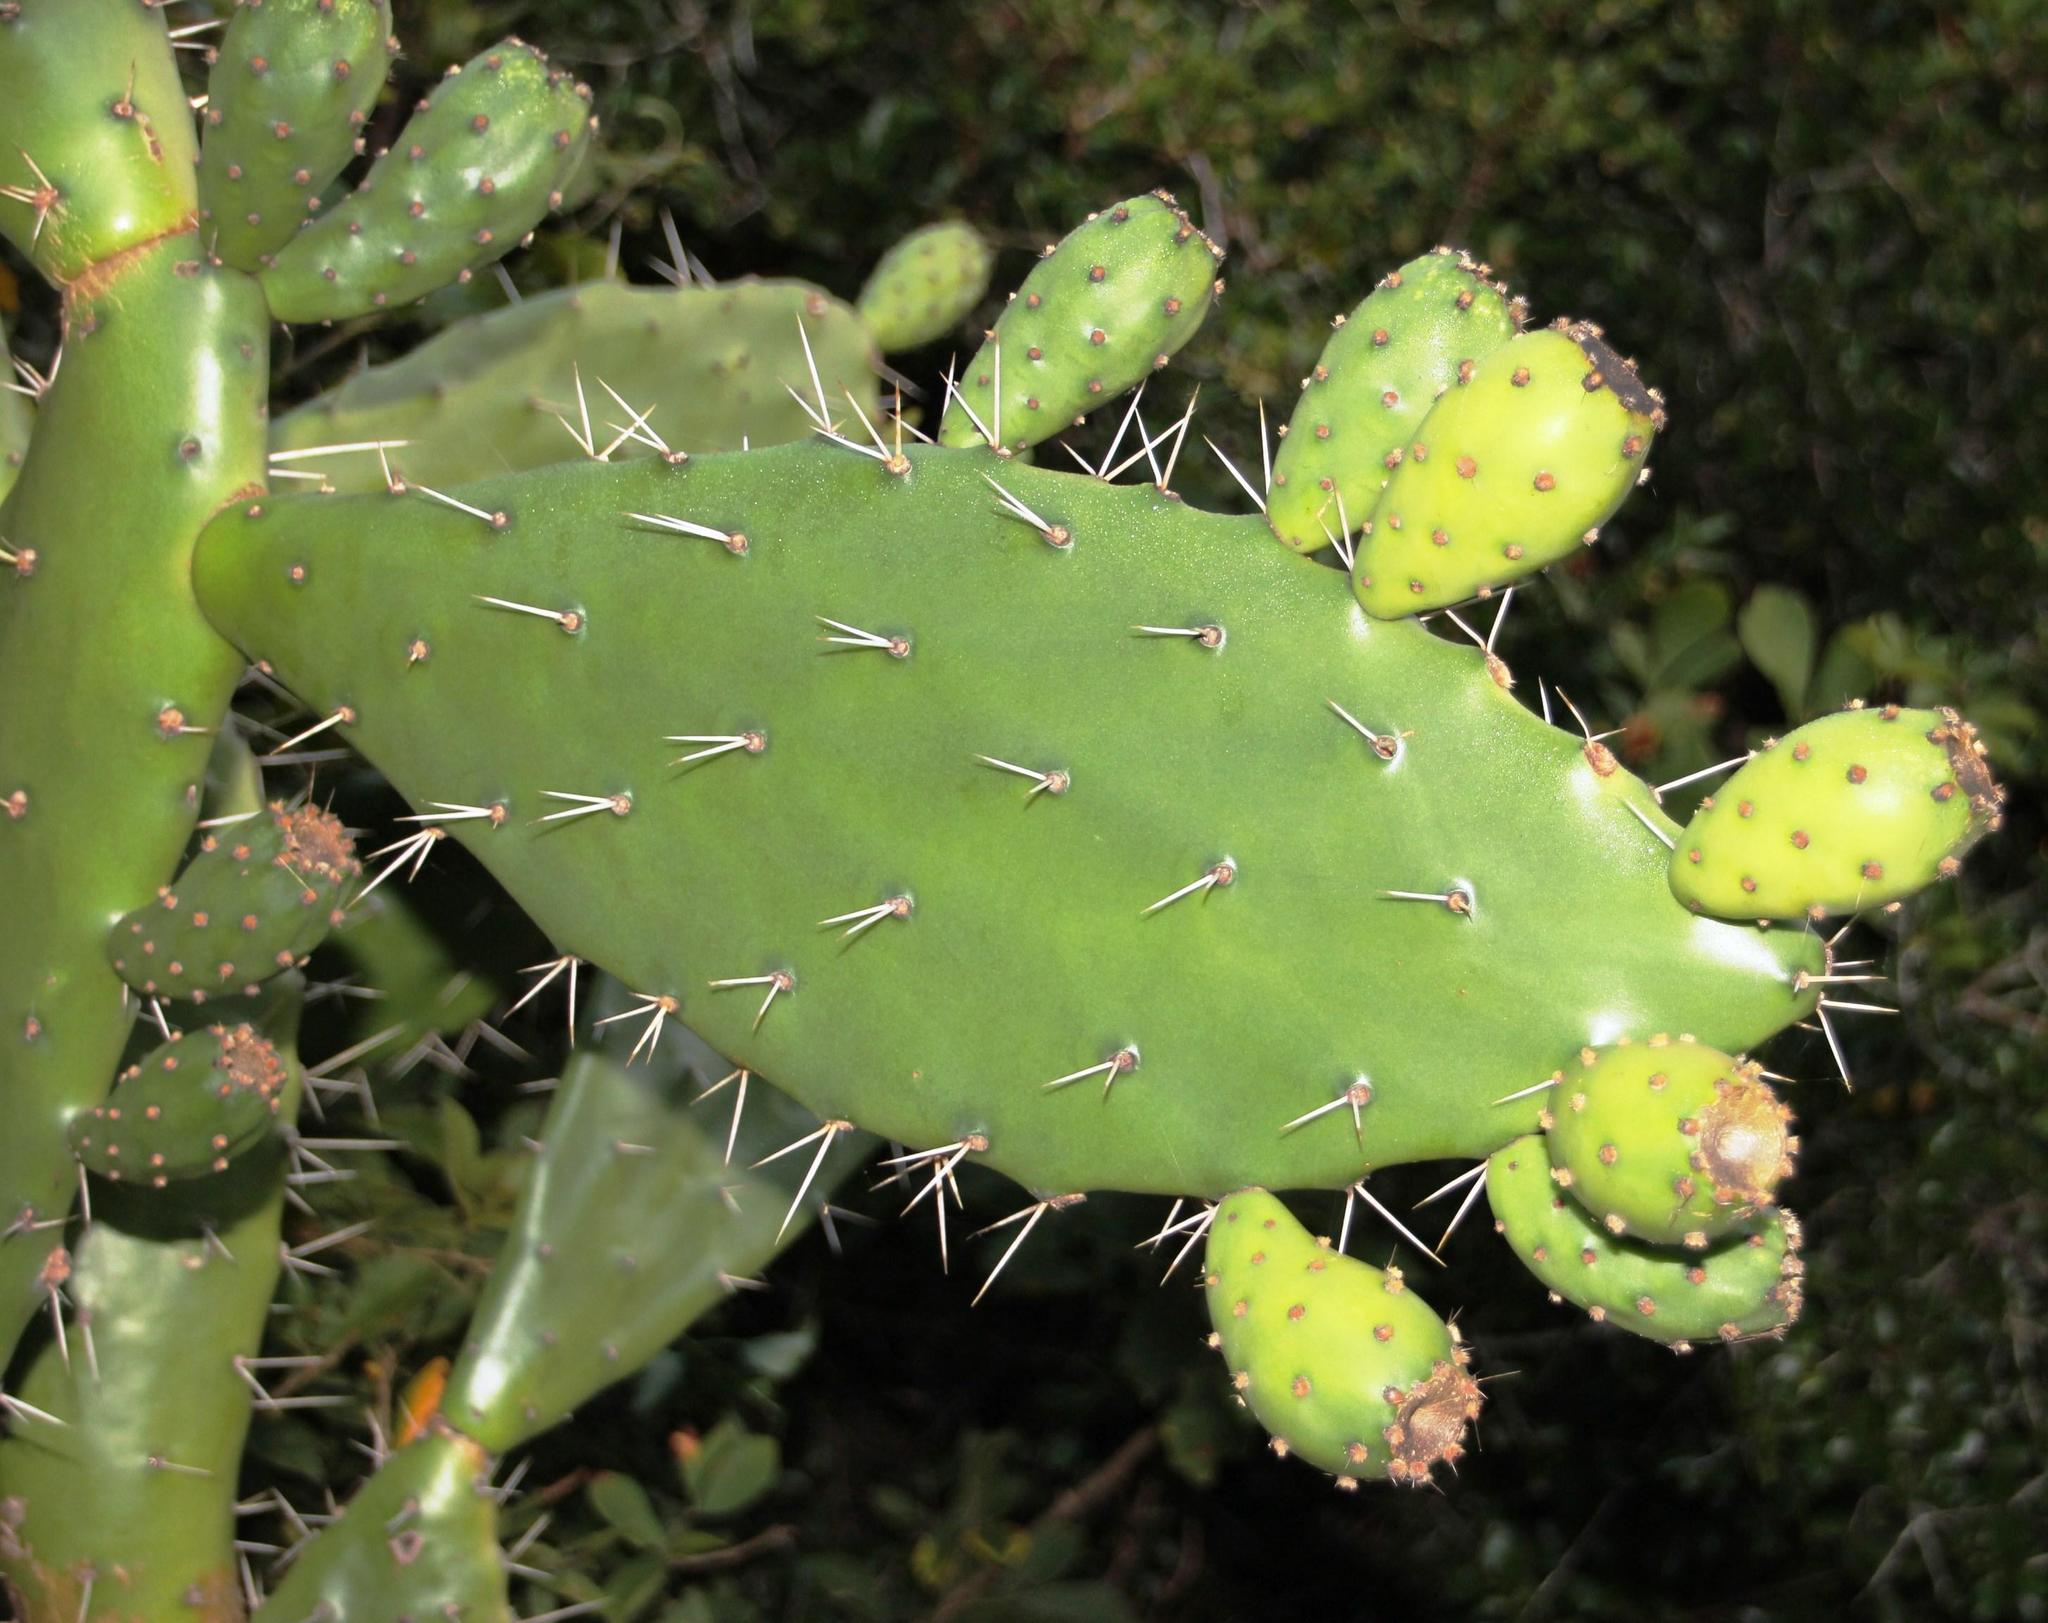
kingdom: Plantae
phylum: Tracheophyta
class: Magnoliopsida
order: Caryophyllales
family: Cactaceae
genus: Opuntia
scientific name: Opuntia ficus-indica
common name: Barbary fig
